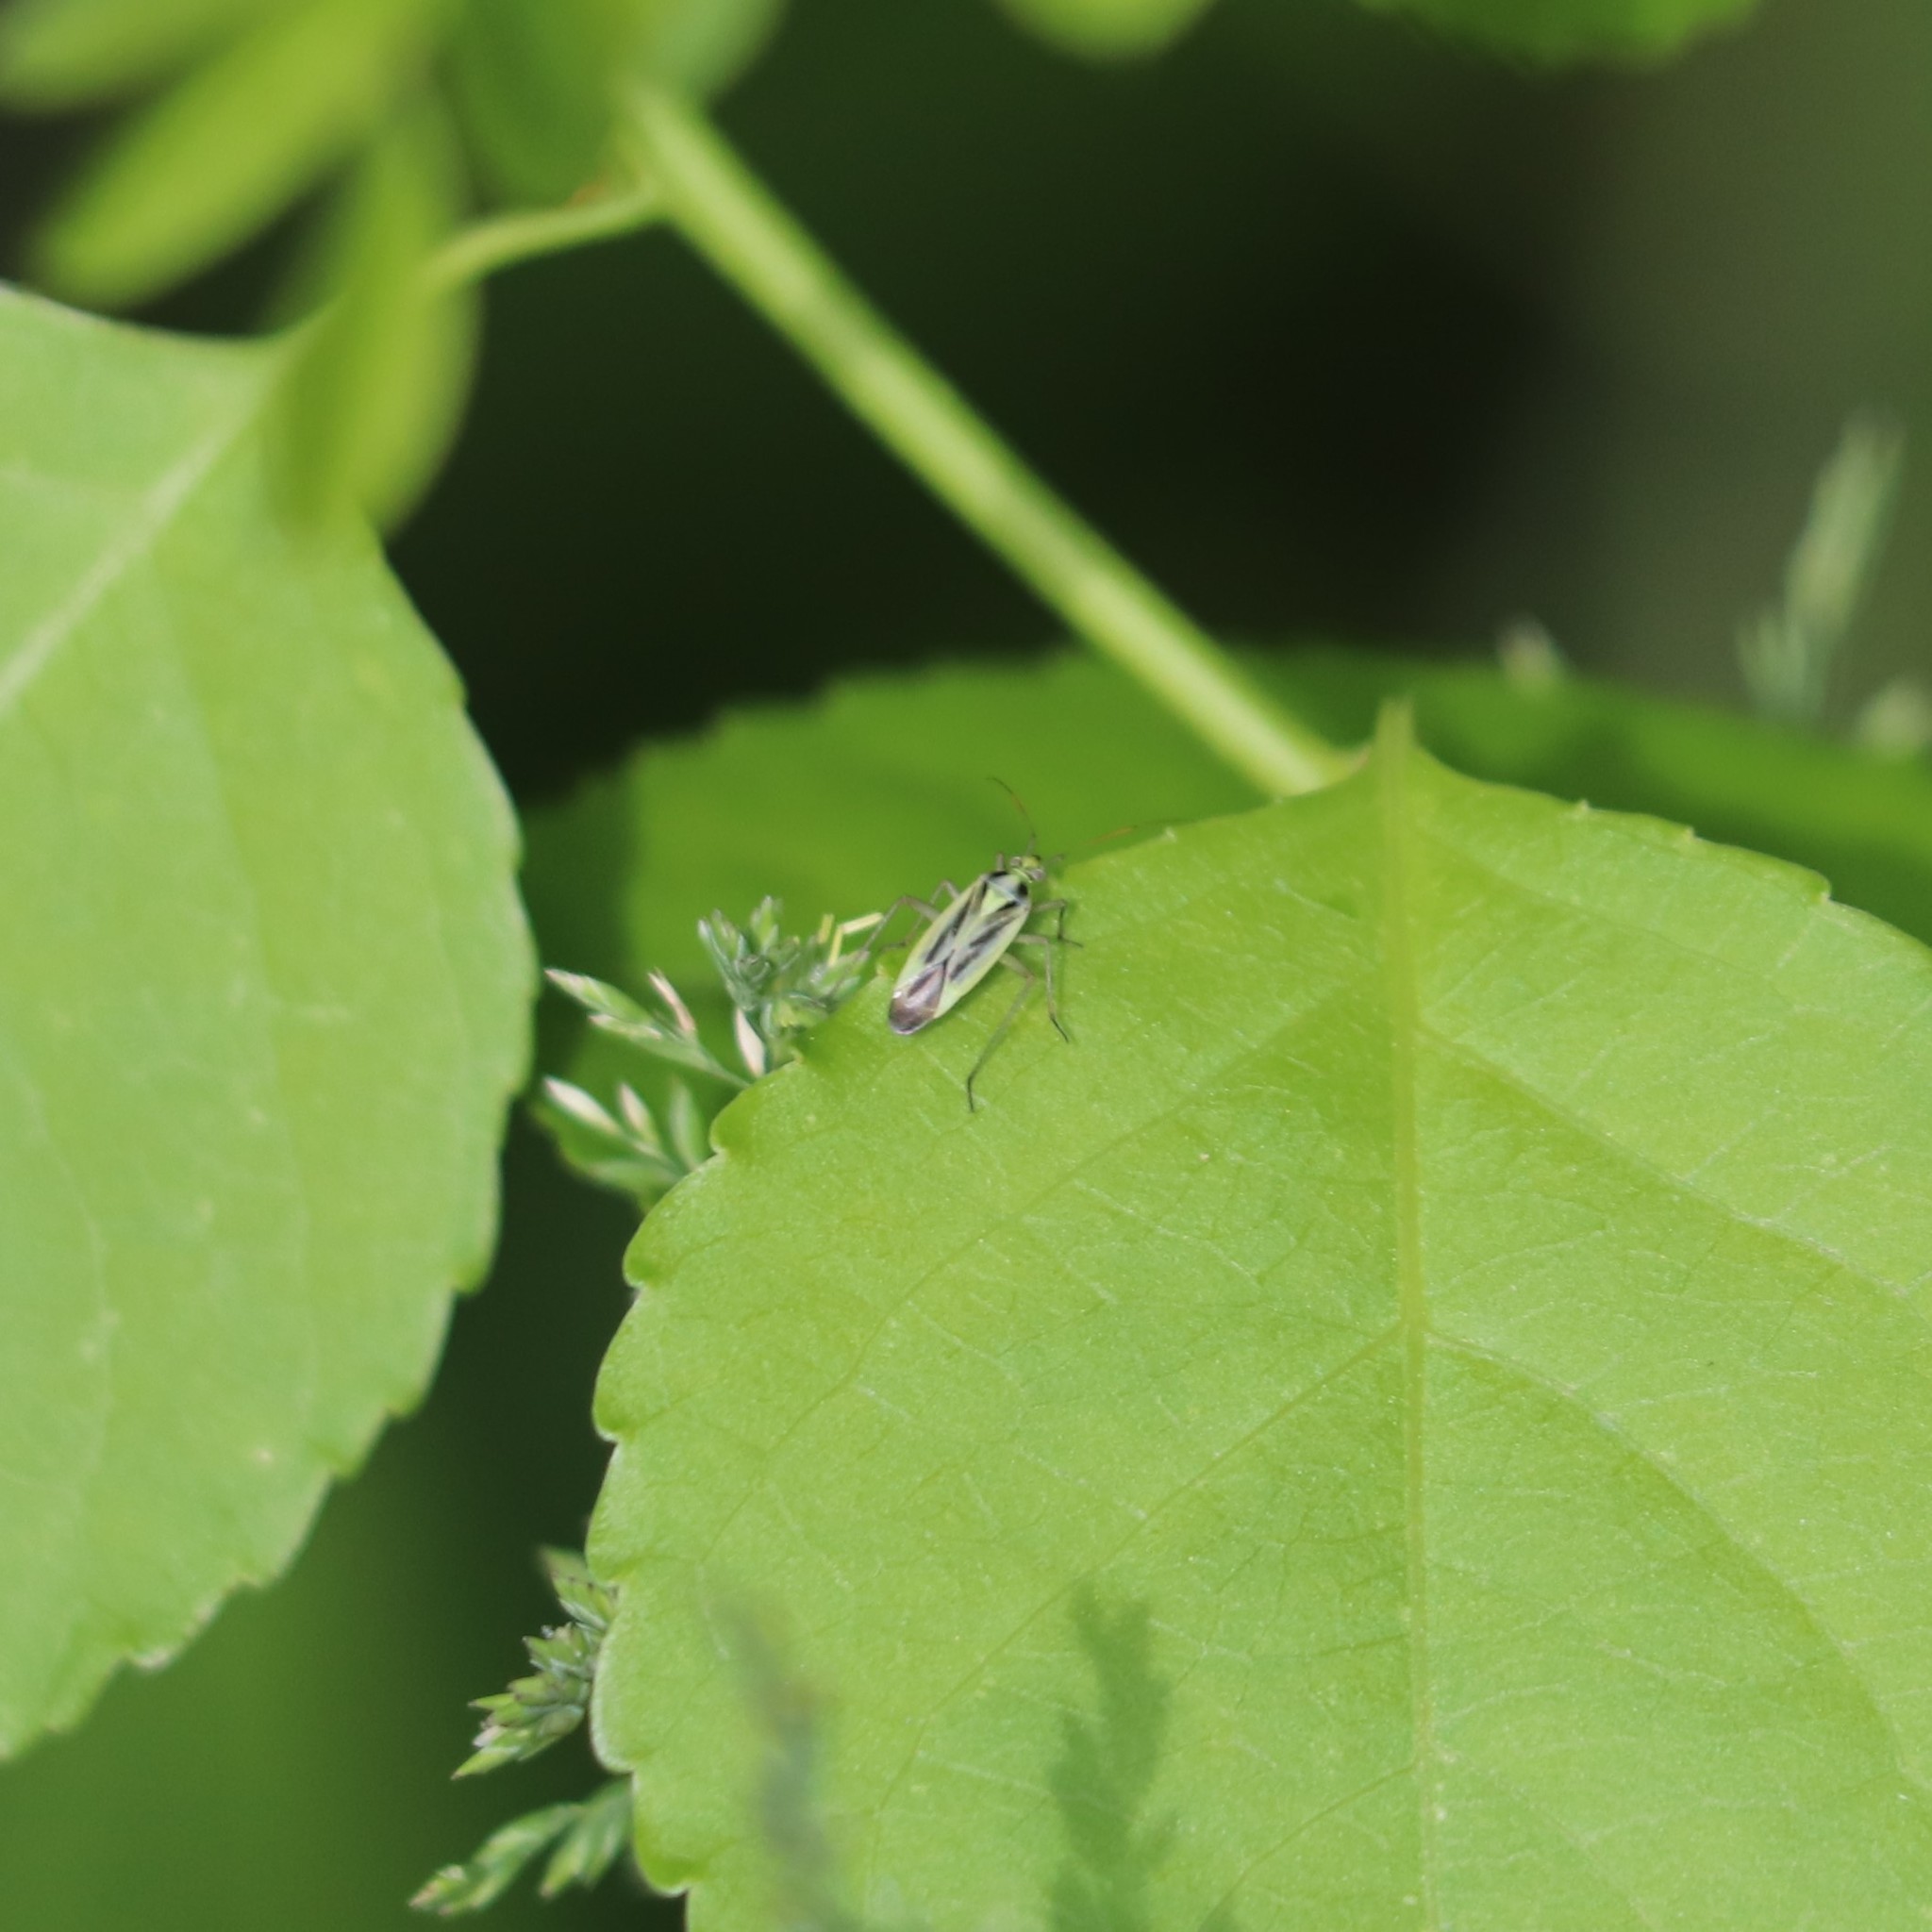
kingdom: Animalia
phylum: Arthropoda
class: Insecta
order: Hemiptera
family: Miridae
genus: Stenotus
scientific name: Stenotus binotatus
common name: Plant bug
